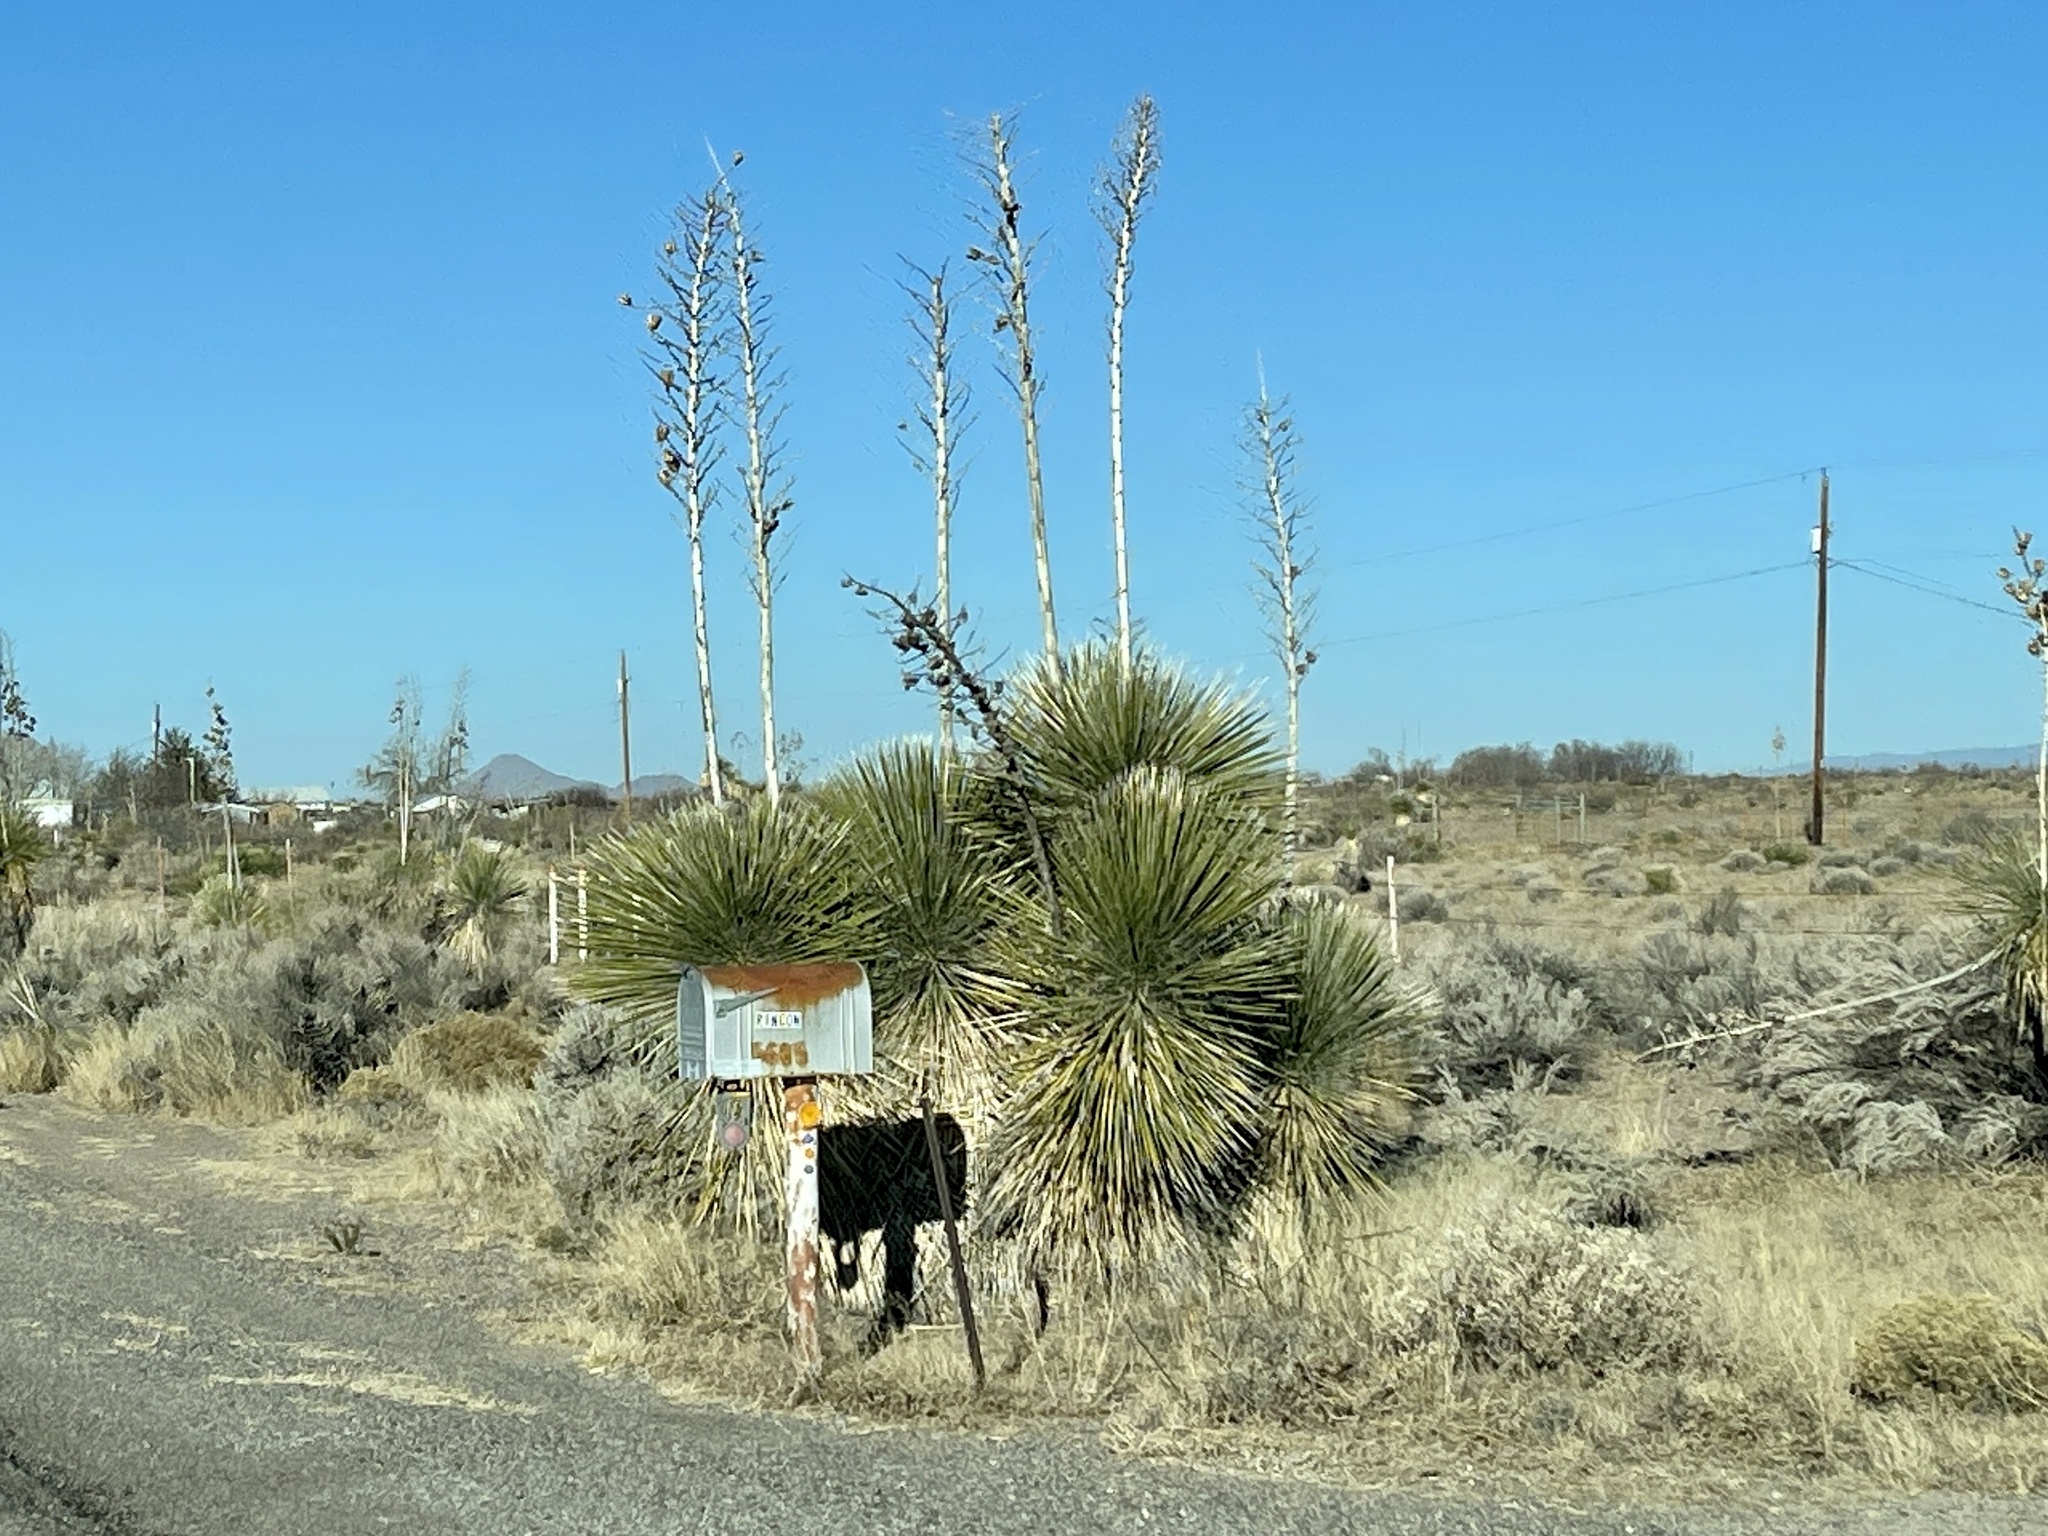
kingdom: Plantae
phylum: Tracheophyta
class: Liliopsida
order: Asparagales
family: Asparagaceae
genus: Yucca
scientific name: Yucca elata
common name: Palmella
